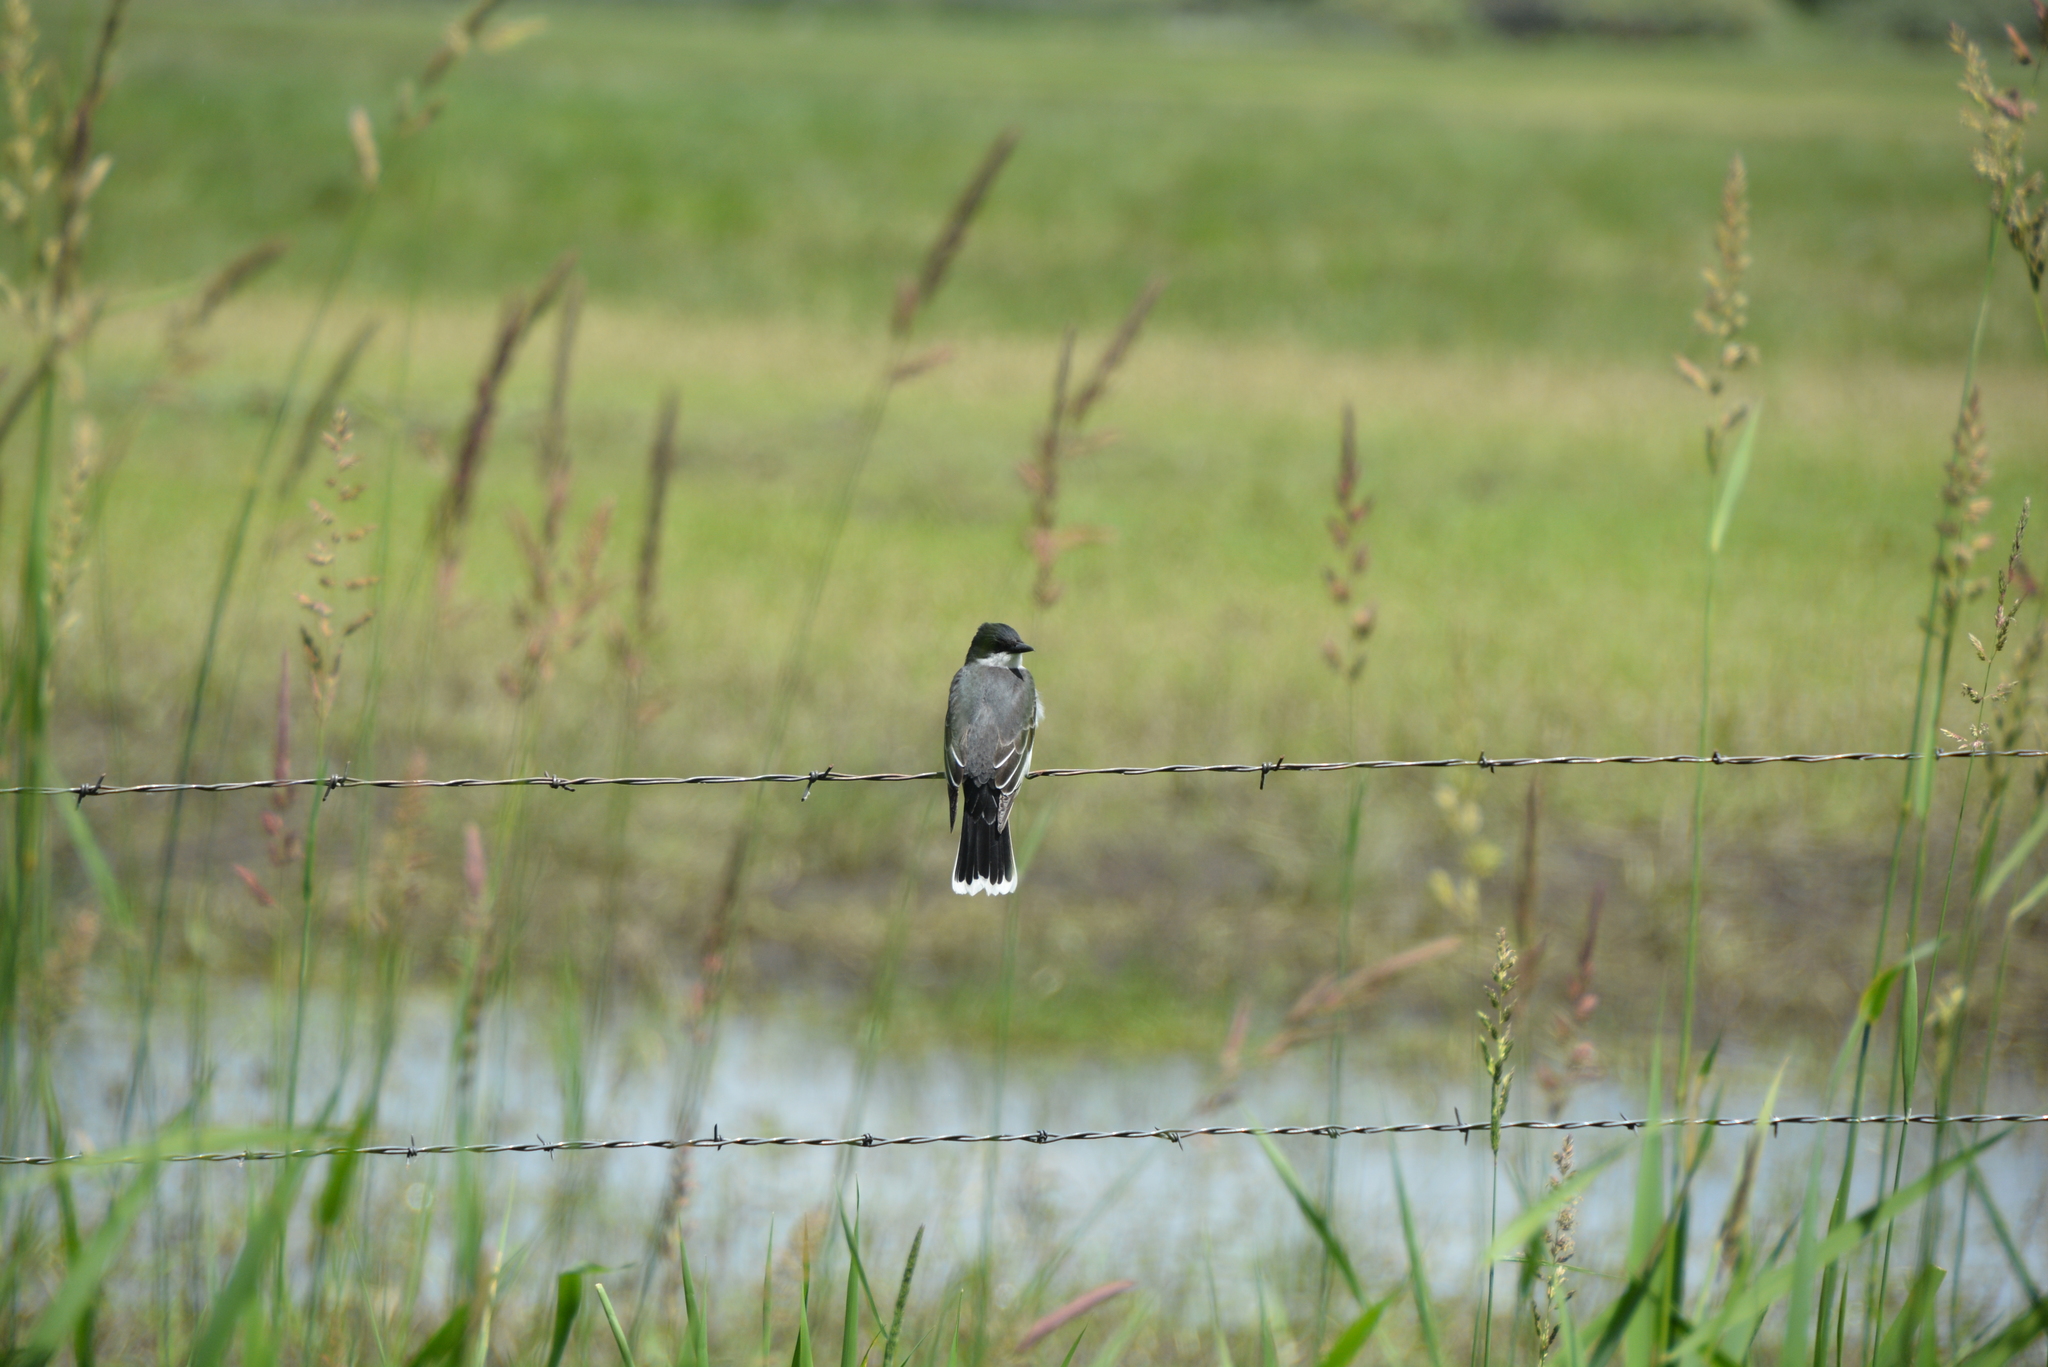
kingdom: Animalia
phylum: Chordata
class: Aves
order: Passeriformes
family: Tyrannidae
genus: Tyrannus
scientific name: Tyrannus tyrannus
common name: Eastern kingbird
